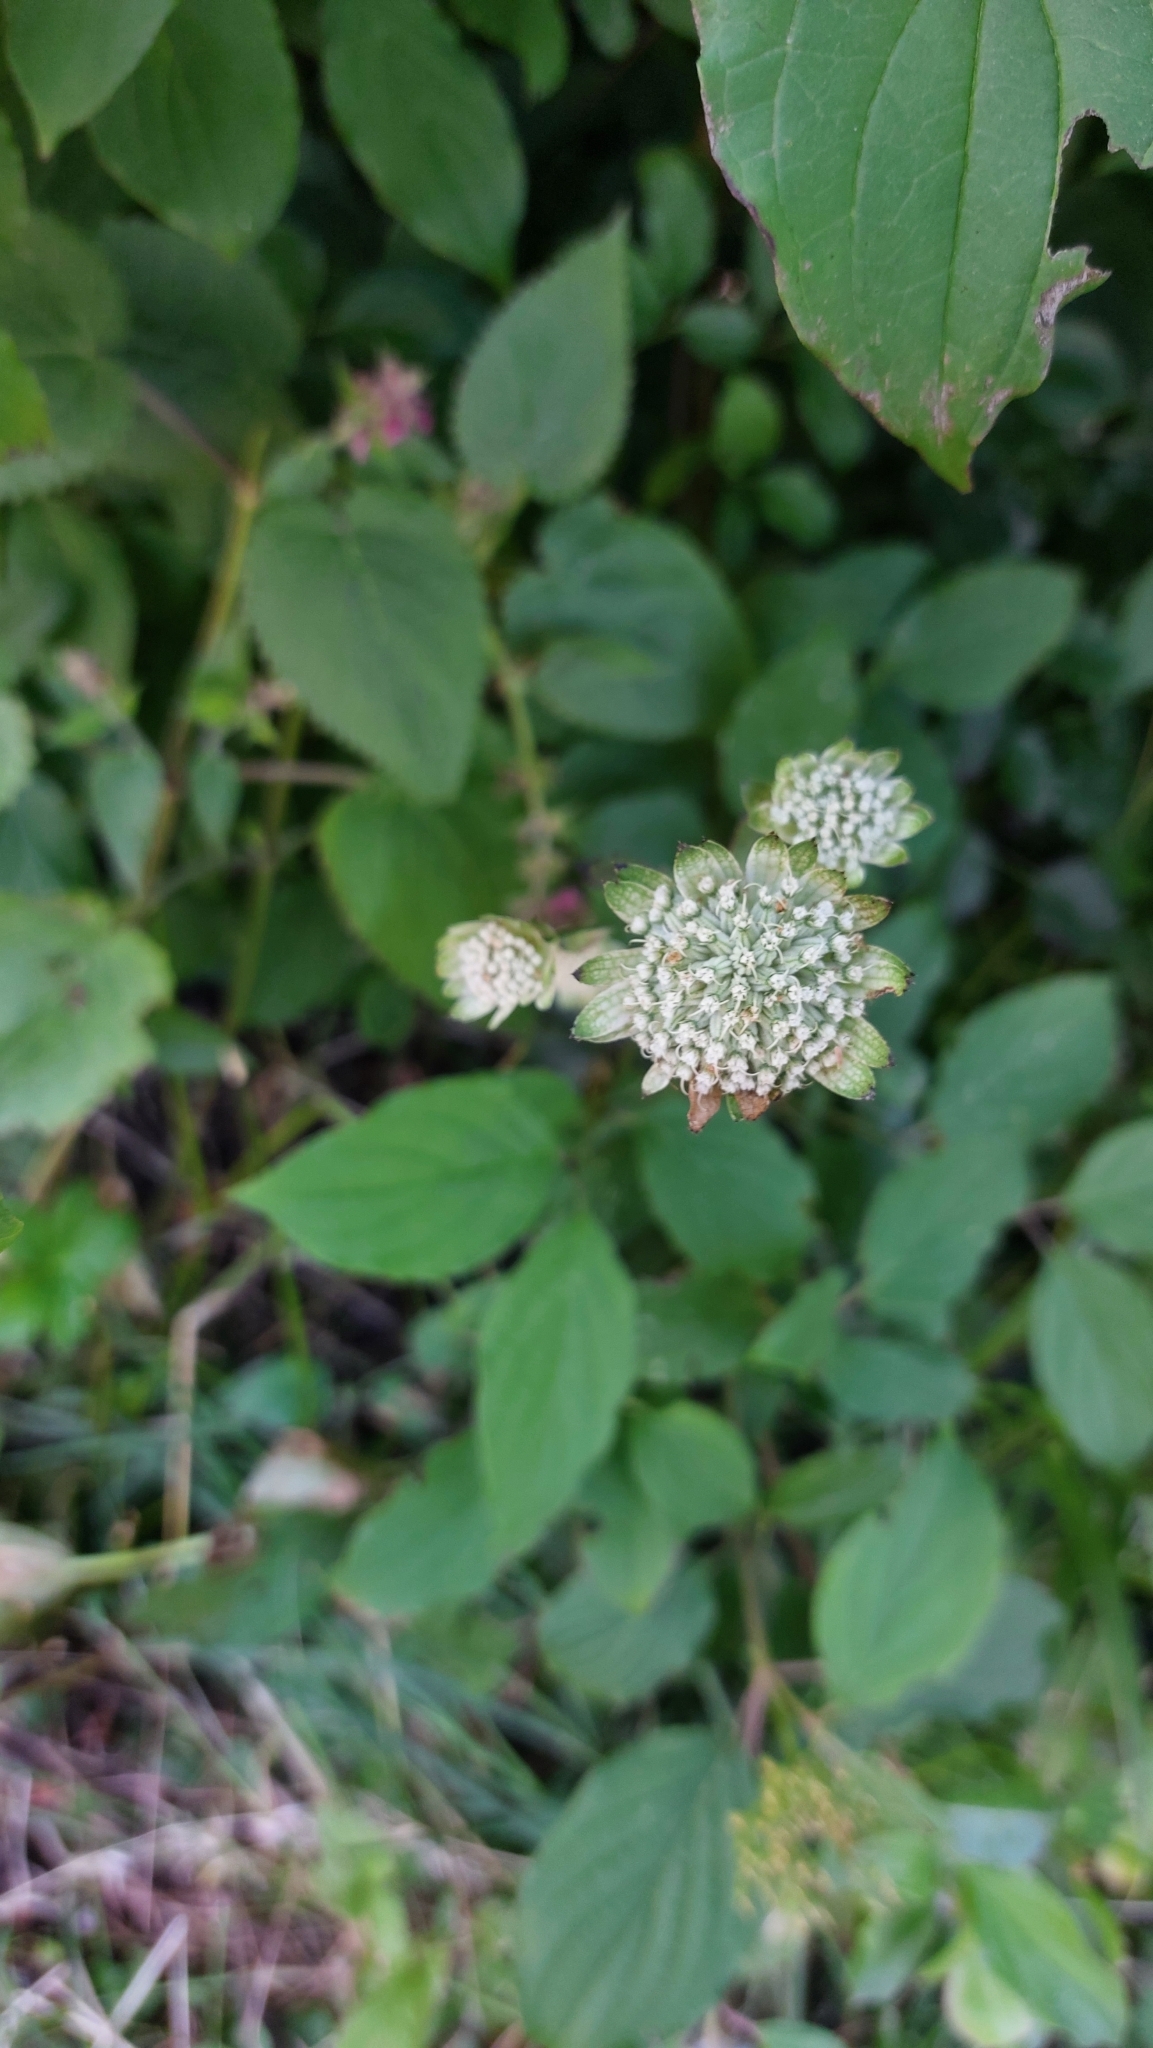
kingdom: Plantae
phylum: Tracheophyta
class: Magnoliopsida
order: Apiales
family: Apiaceae
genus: Astrantia
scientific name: Astrantia major
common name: Greater masterwort
